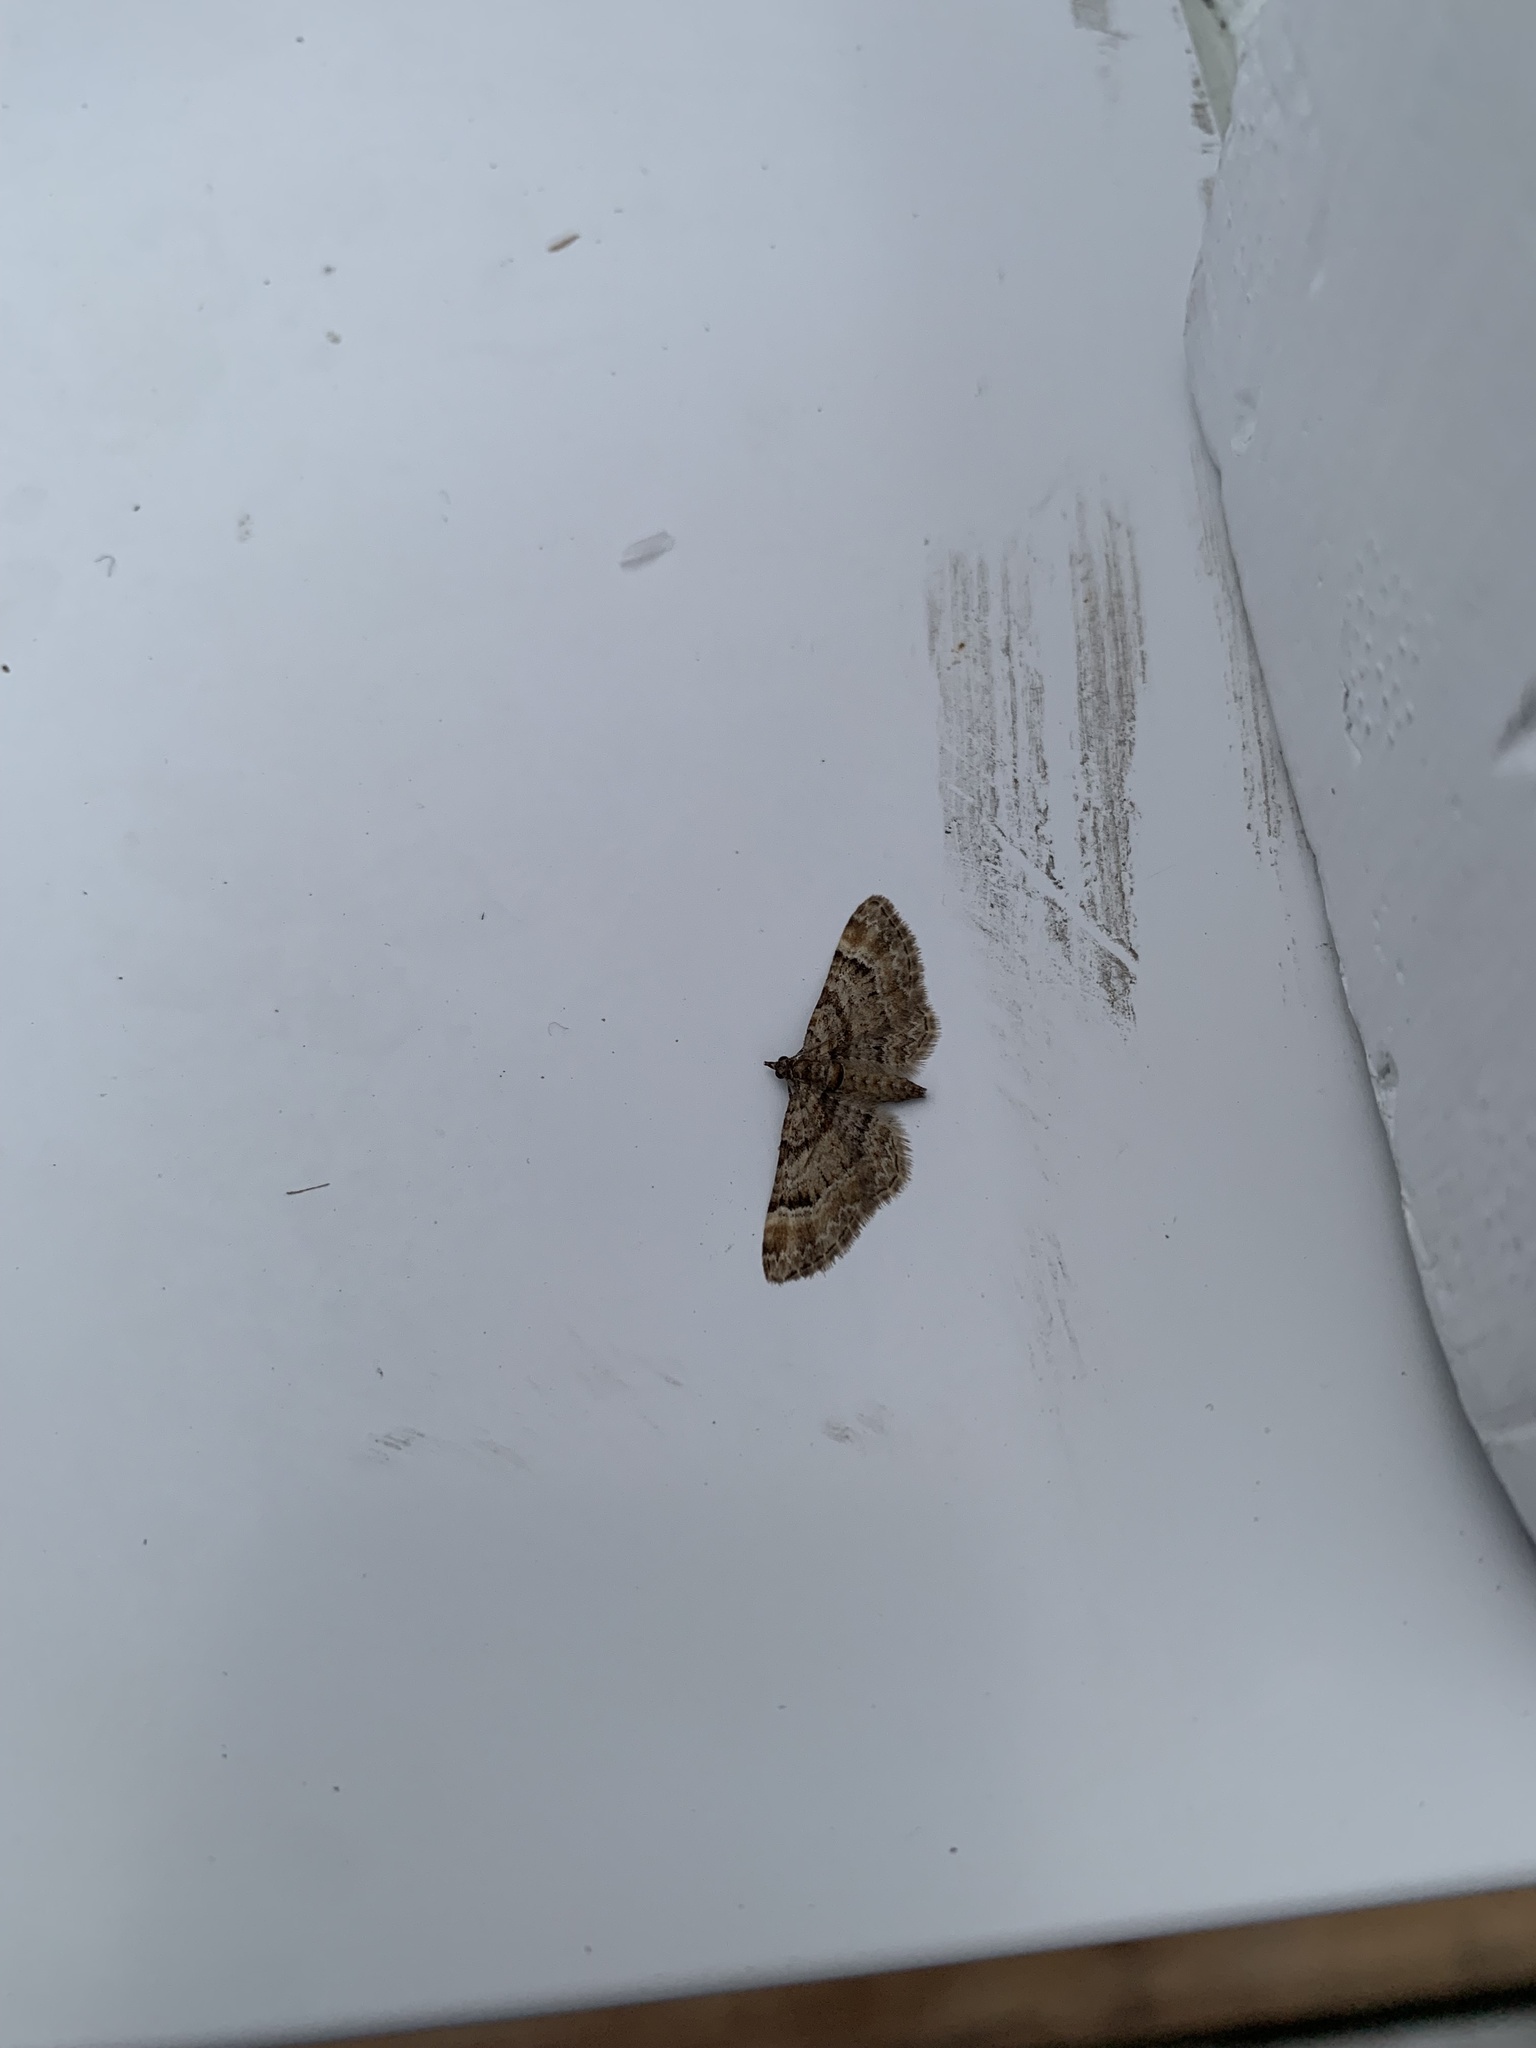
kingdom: Animalia
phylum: Arthropoda
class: Insecta
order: Lepidoptera
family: Geometridae
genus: Gymnoscelis
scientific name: Gymnoscelis rufifasciata
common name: Double-striped pug
